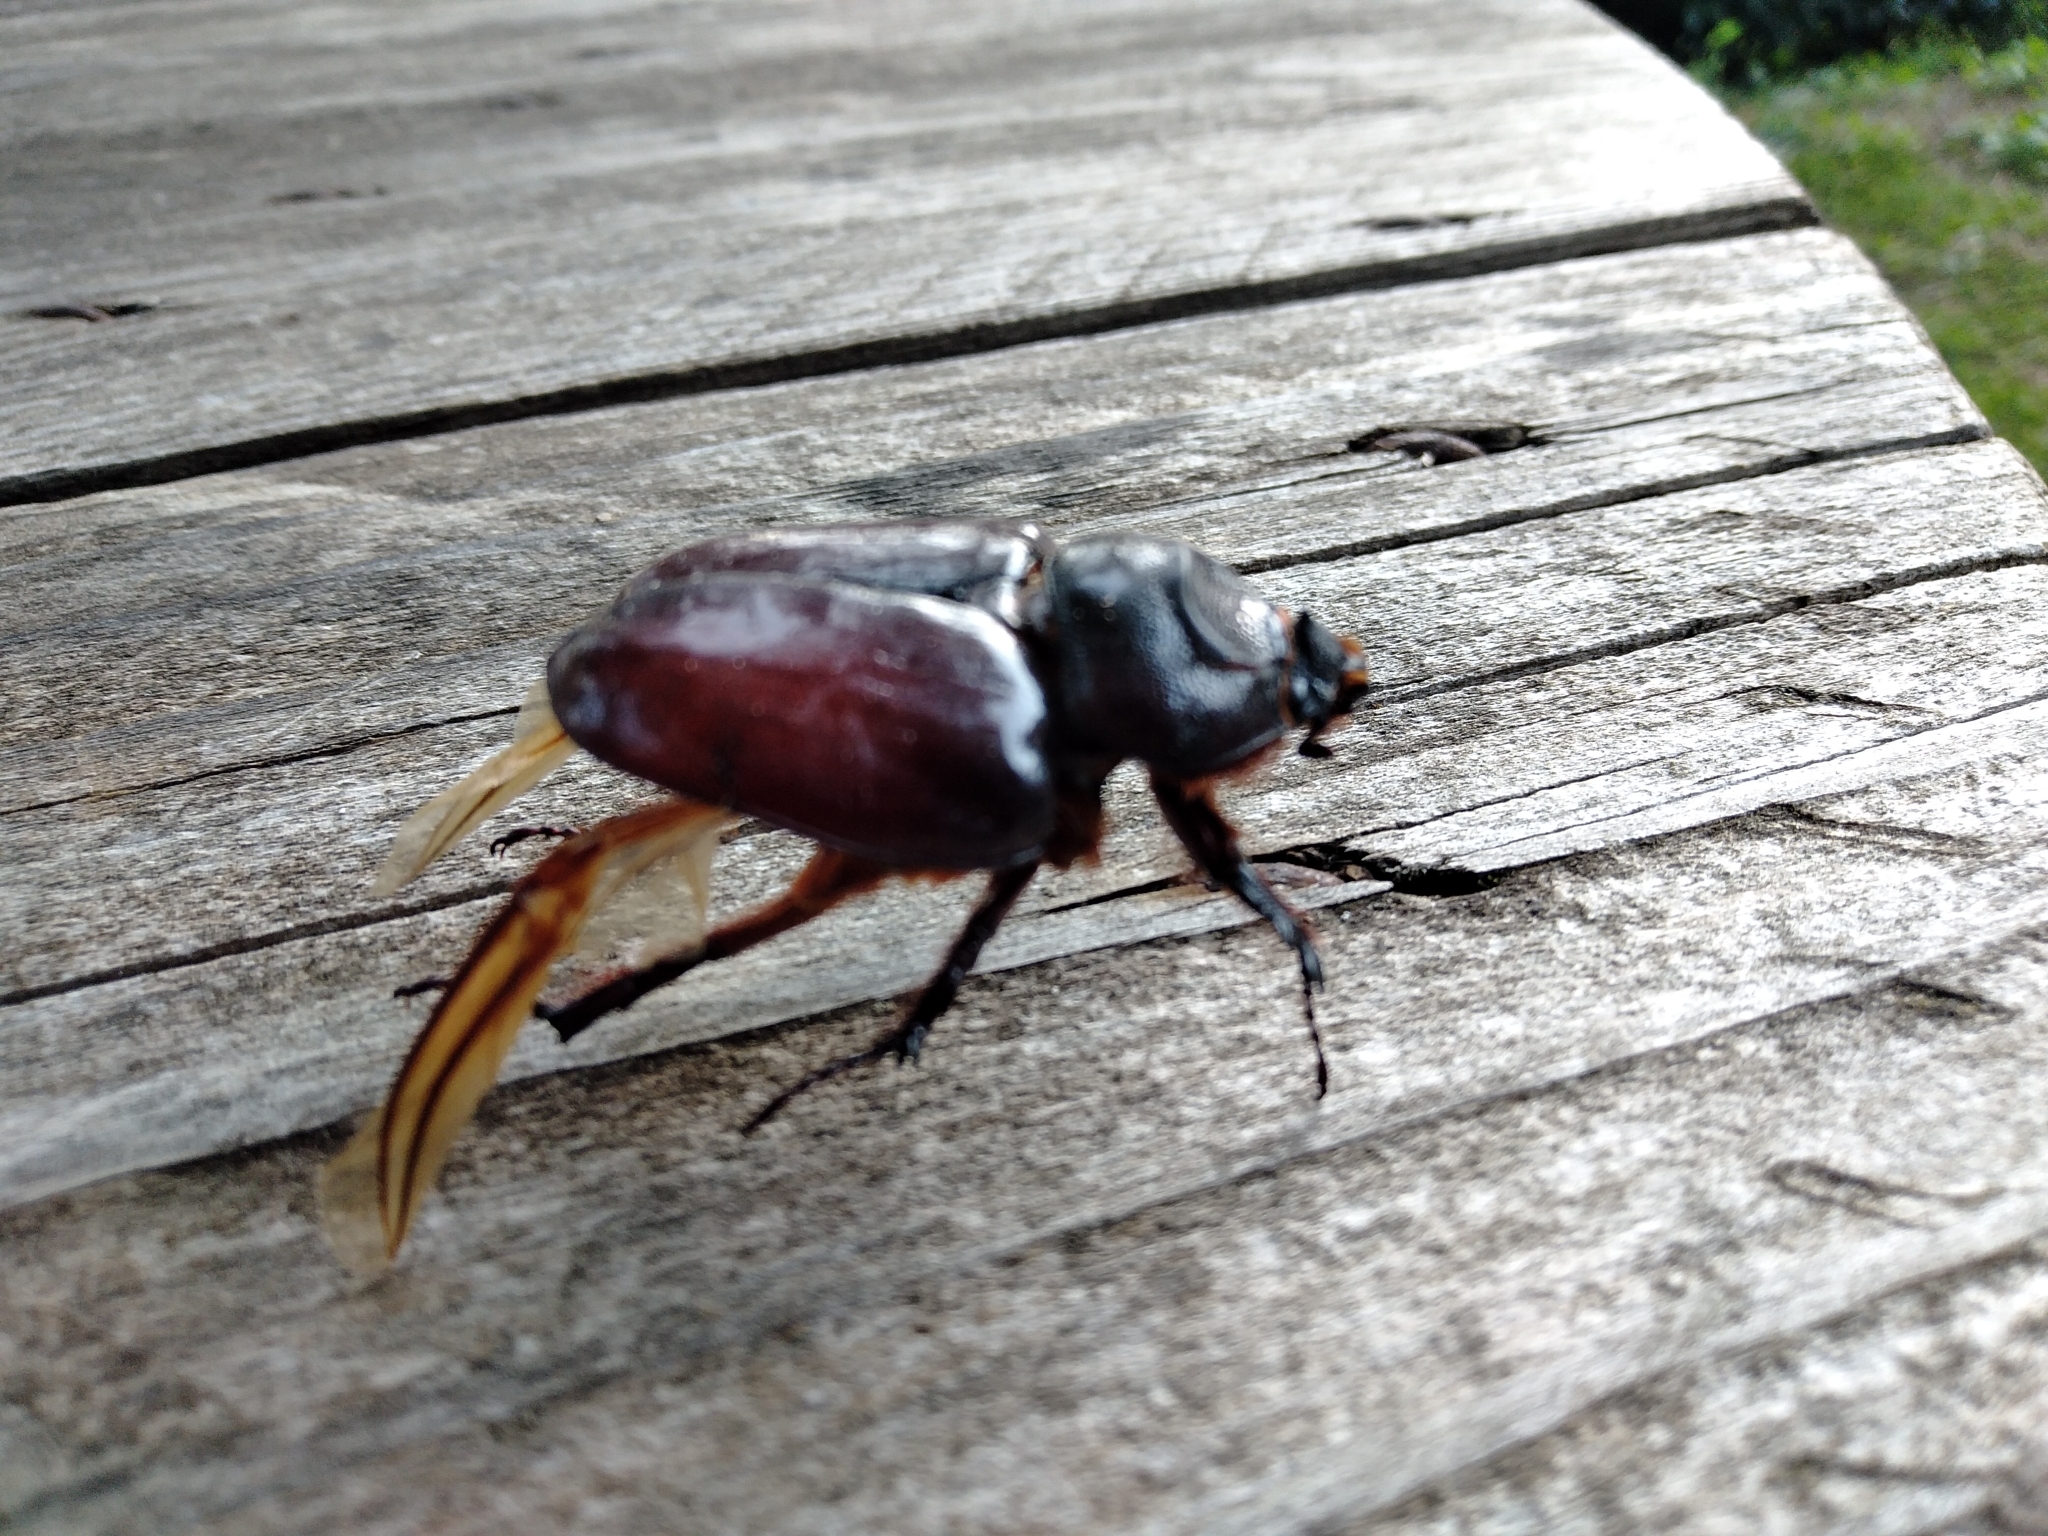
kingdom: Animalia
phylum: Arthropoda
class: Insecta
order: Coleoptera
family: Scarabaeidae
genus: Oryctes
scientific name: Oryctes nasicornis
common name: European rhinoceros beetle
